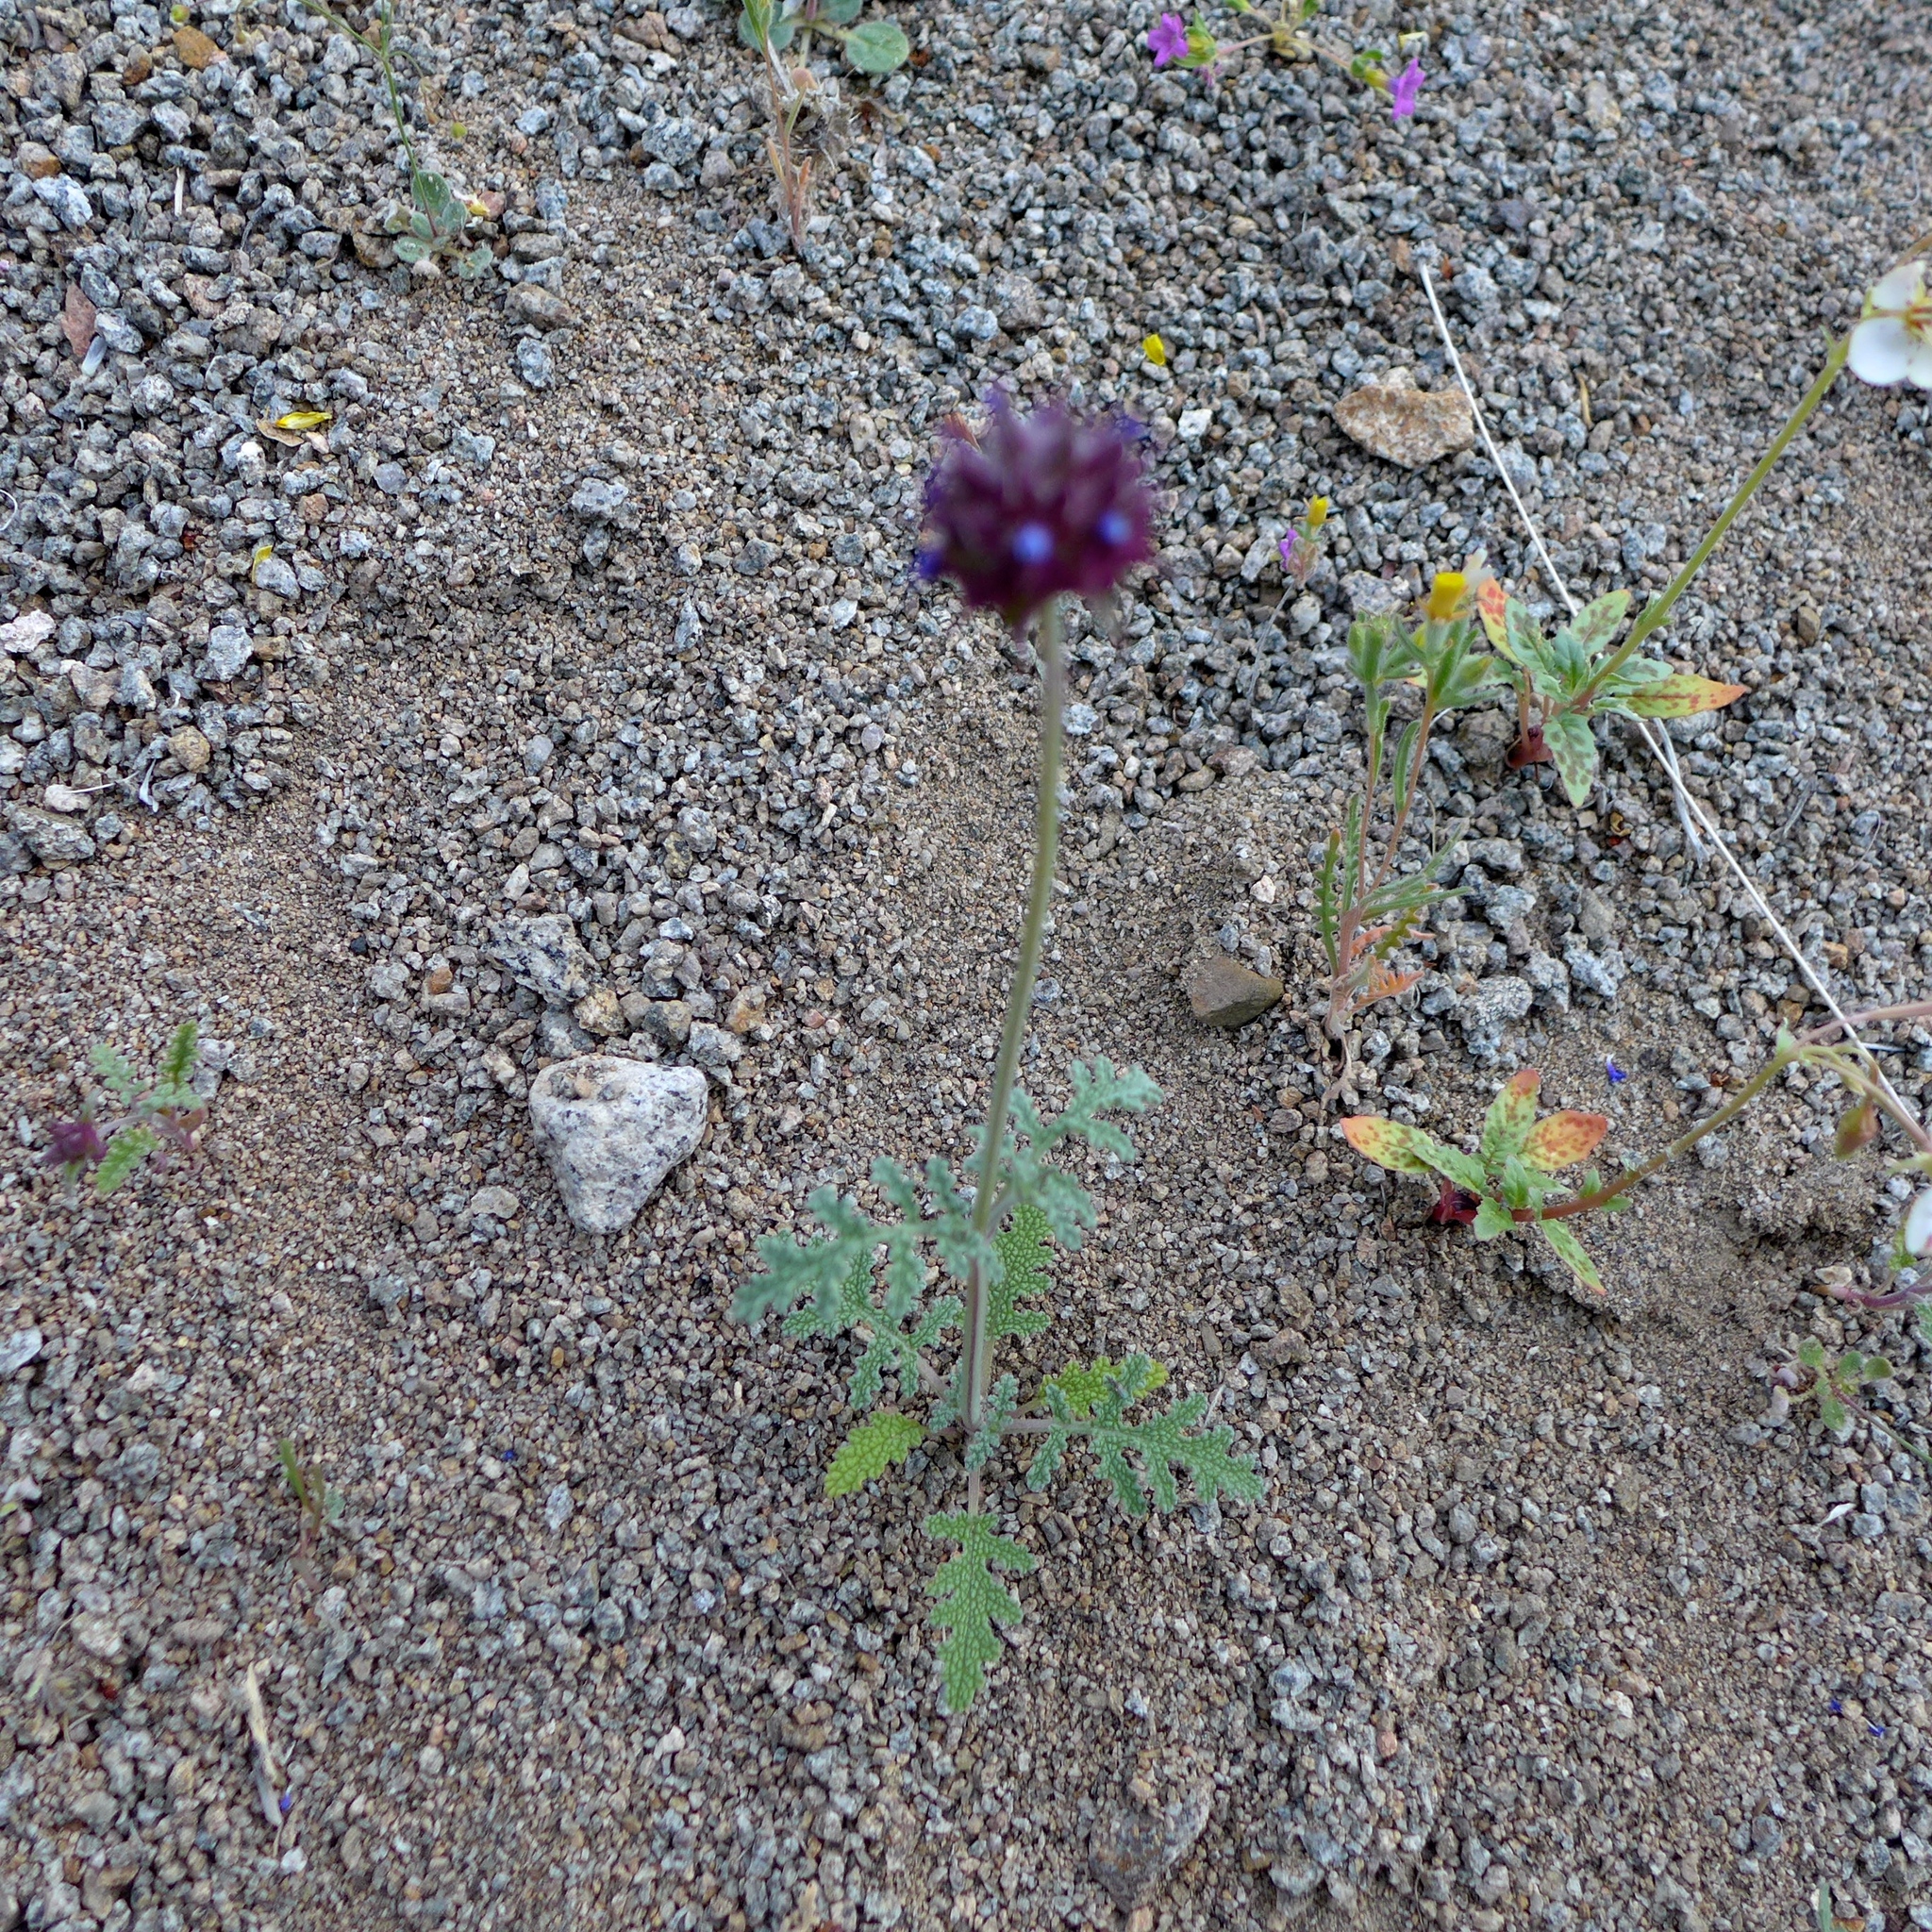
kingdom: Plantae
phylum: Tracheophyta
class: Magnoliopsida
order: Lamiales
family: Lamiaceae
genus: Salvia
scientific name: Salvia columbariae
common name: Chia
